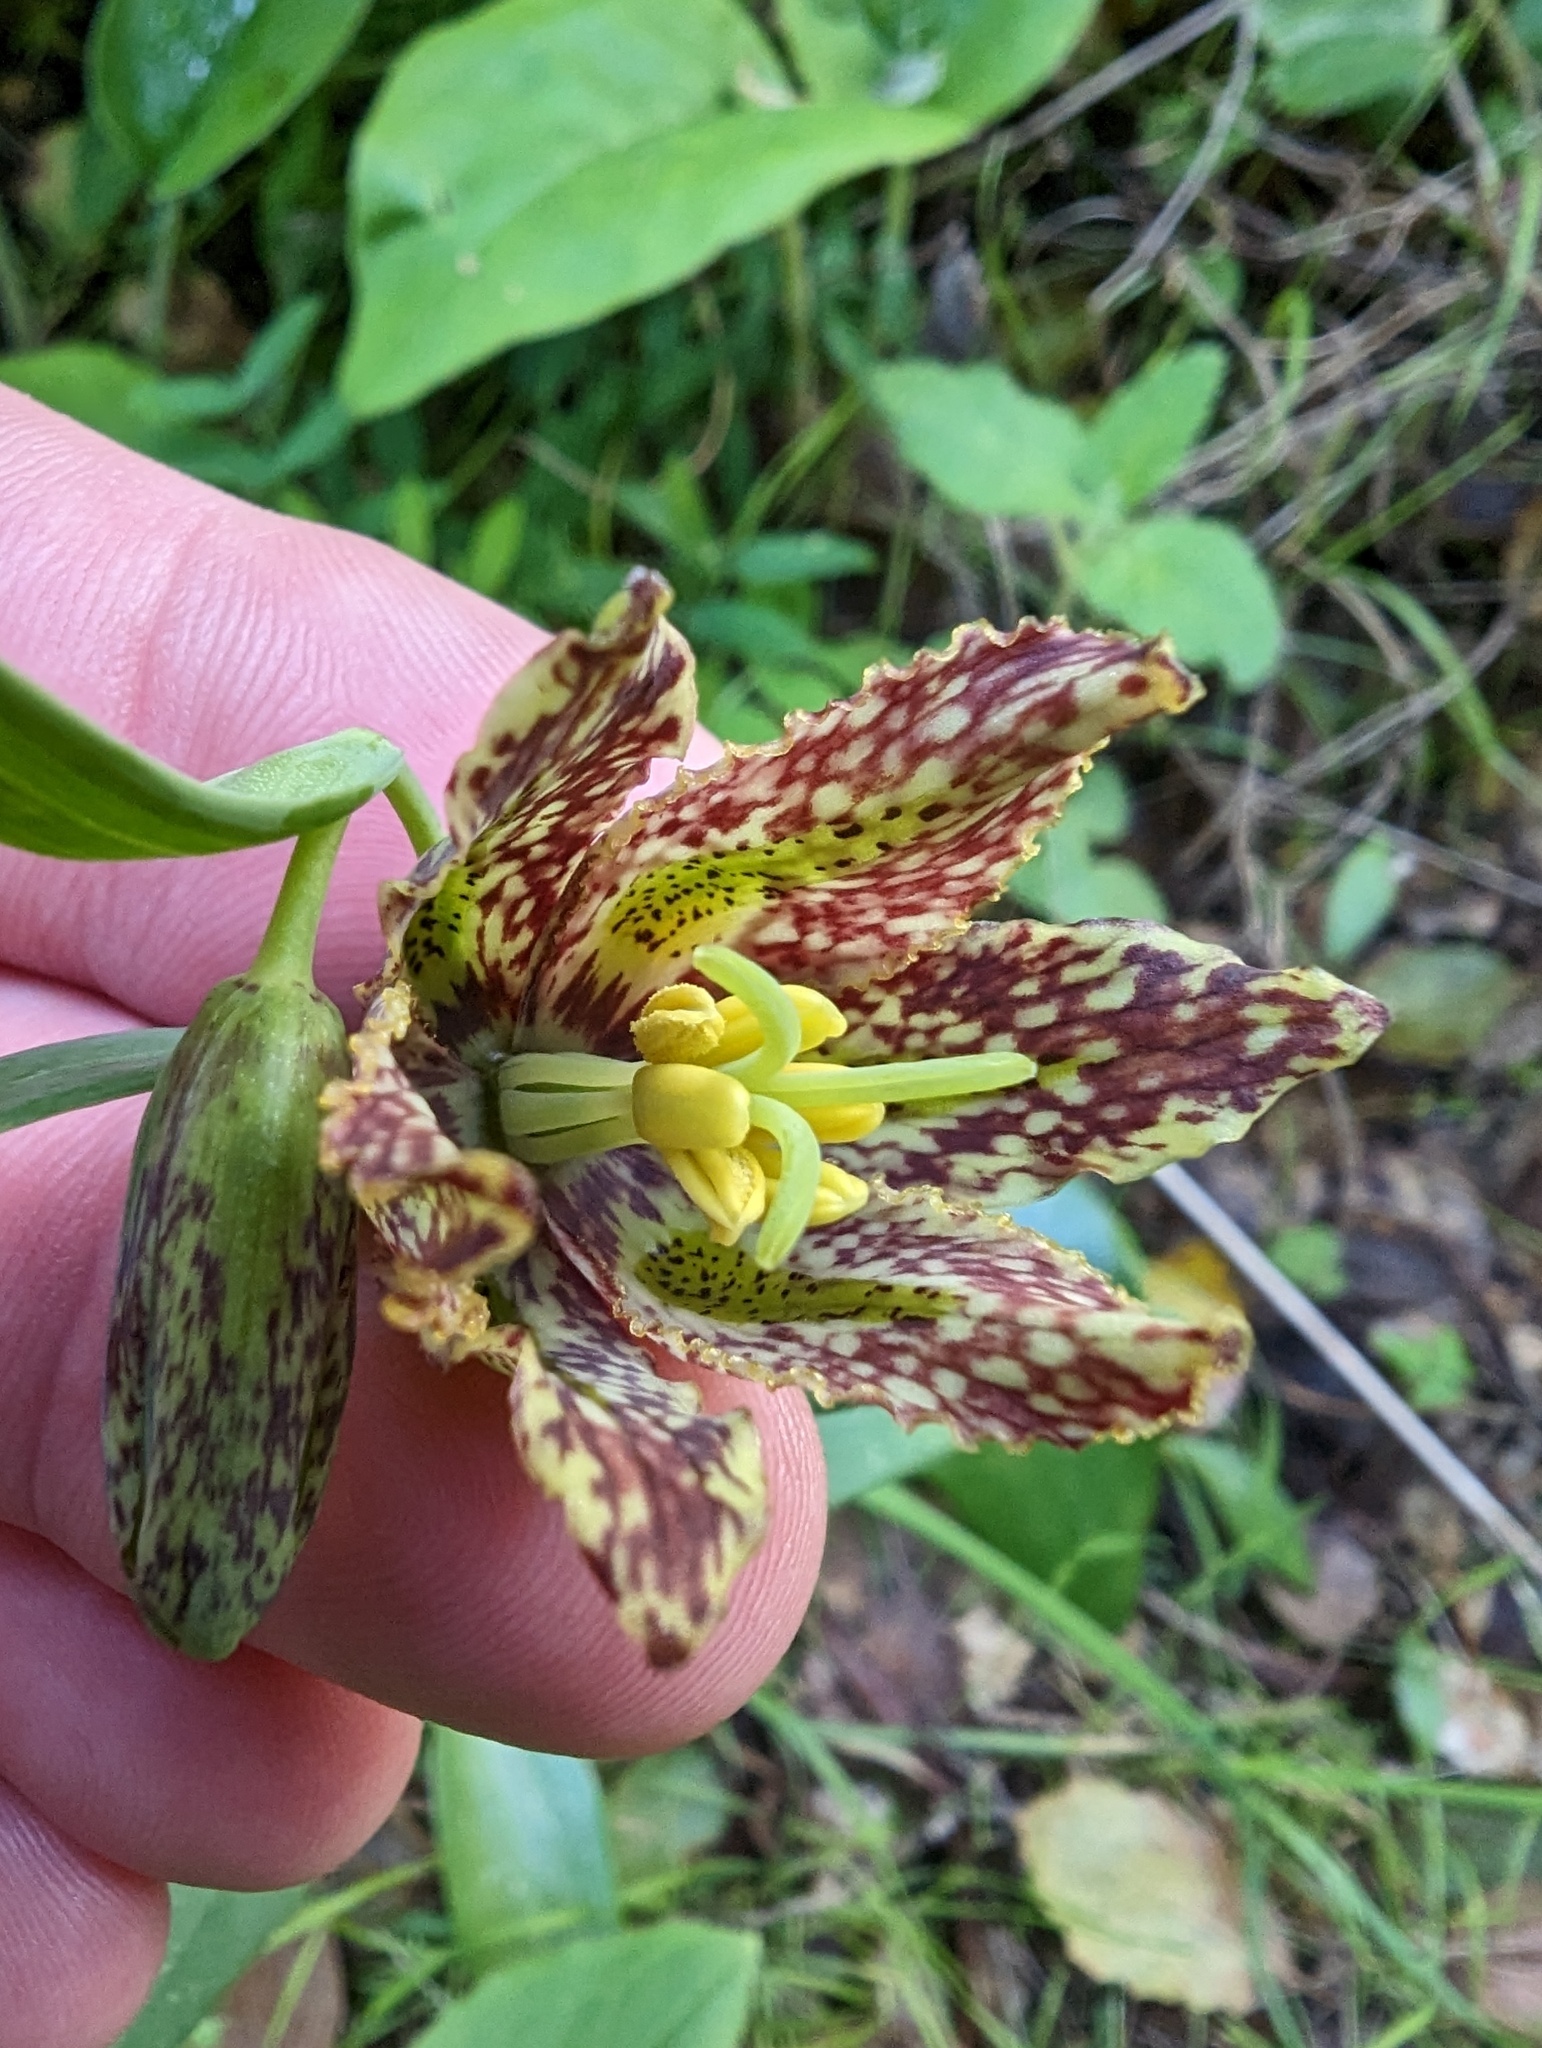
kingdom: Plantae
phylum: Tracheophyta
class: Liliopsida
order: Liliales
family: Liliaceae
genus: Fritillaria
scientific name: Fritillaria affinis
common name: Ojai fritillary
